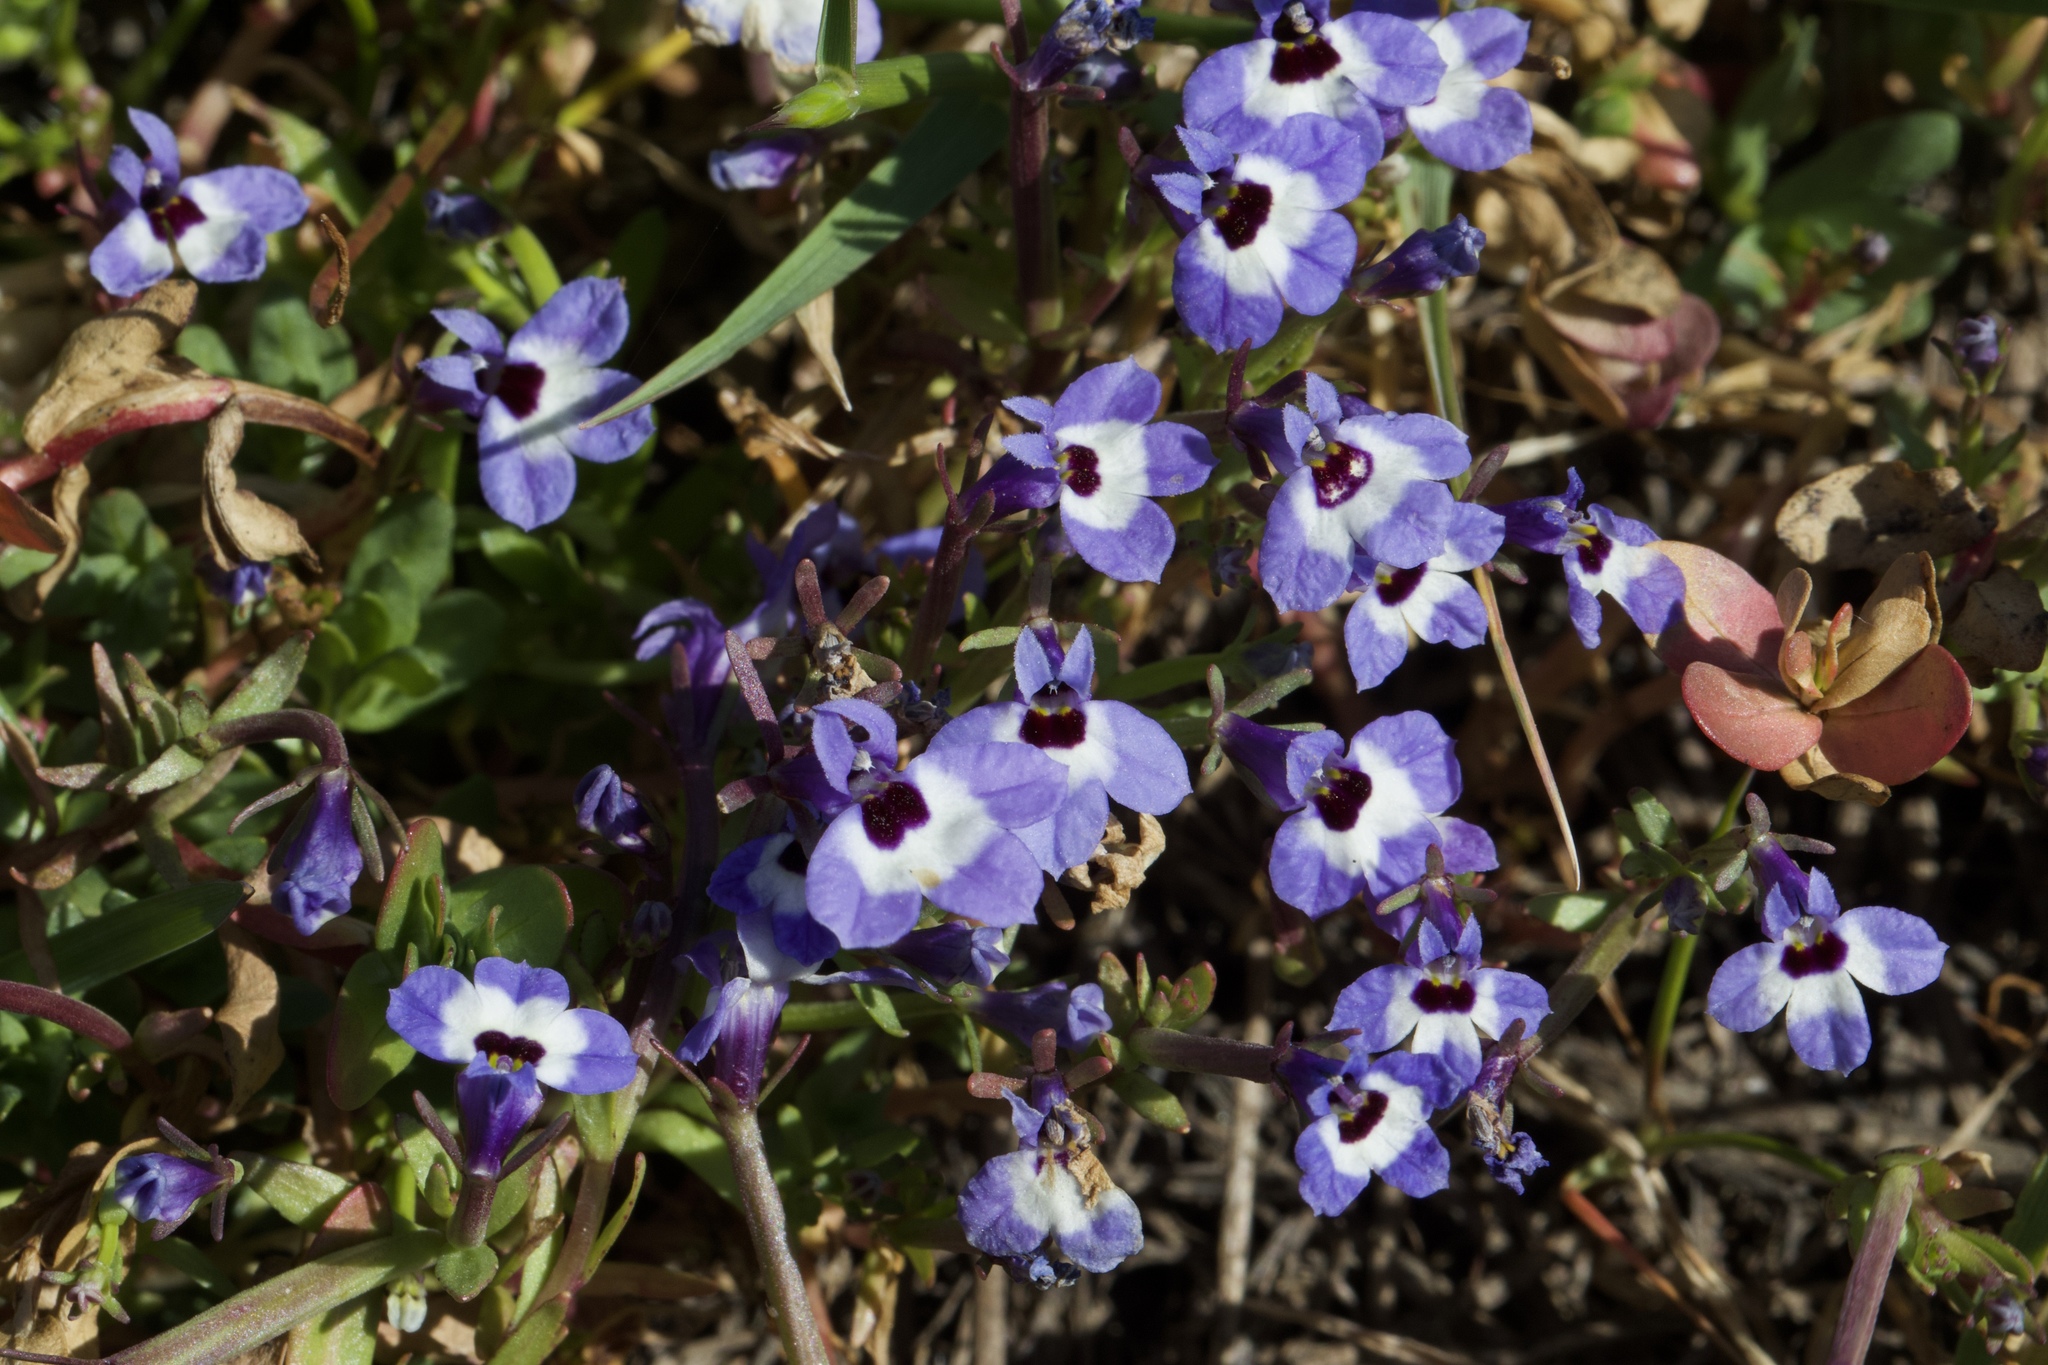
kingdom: Plantae
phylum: Tracheophyta
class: Magnoliopsida
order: Asterales
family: Campanulaceae
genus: Downingia
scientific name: Downingia concolor
